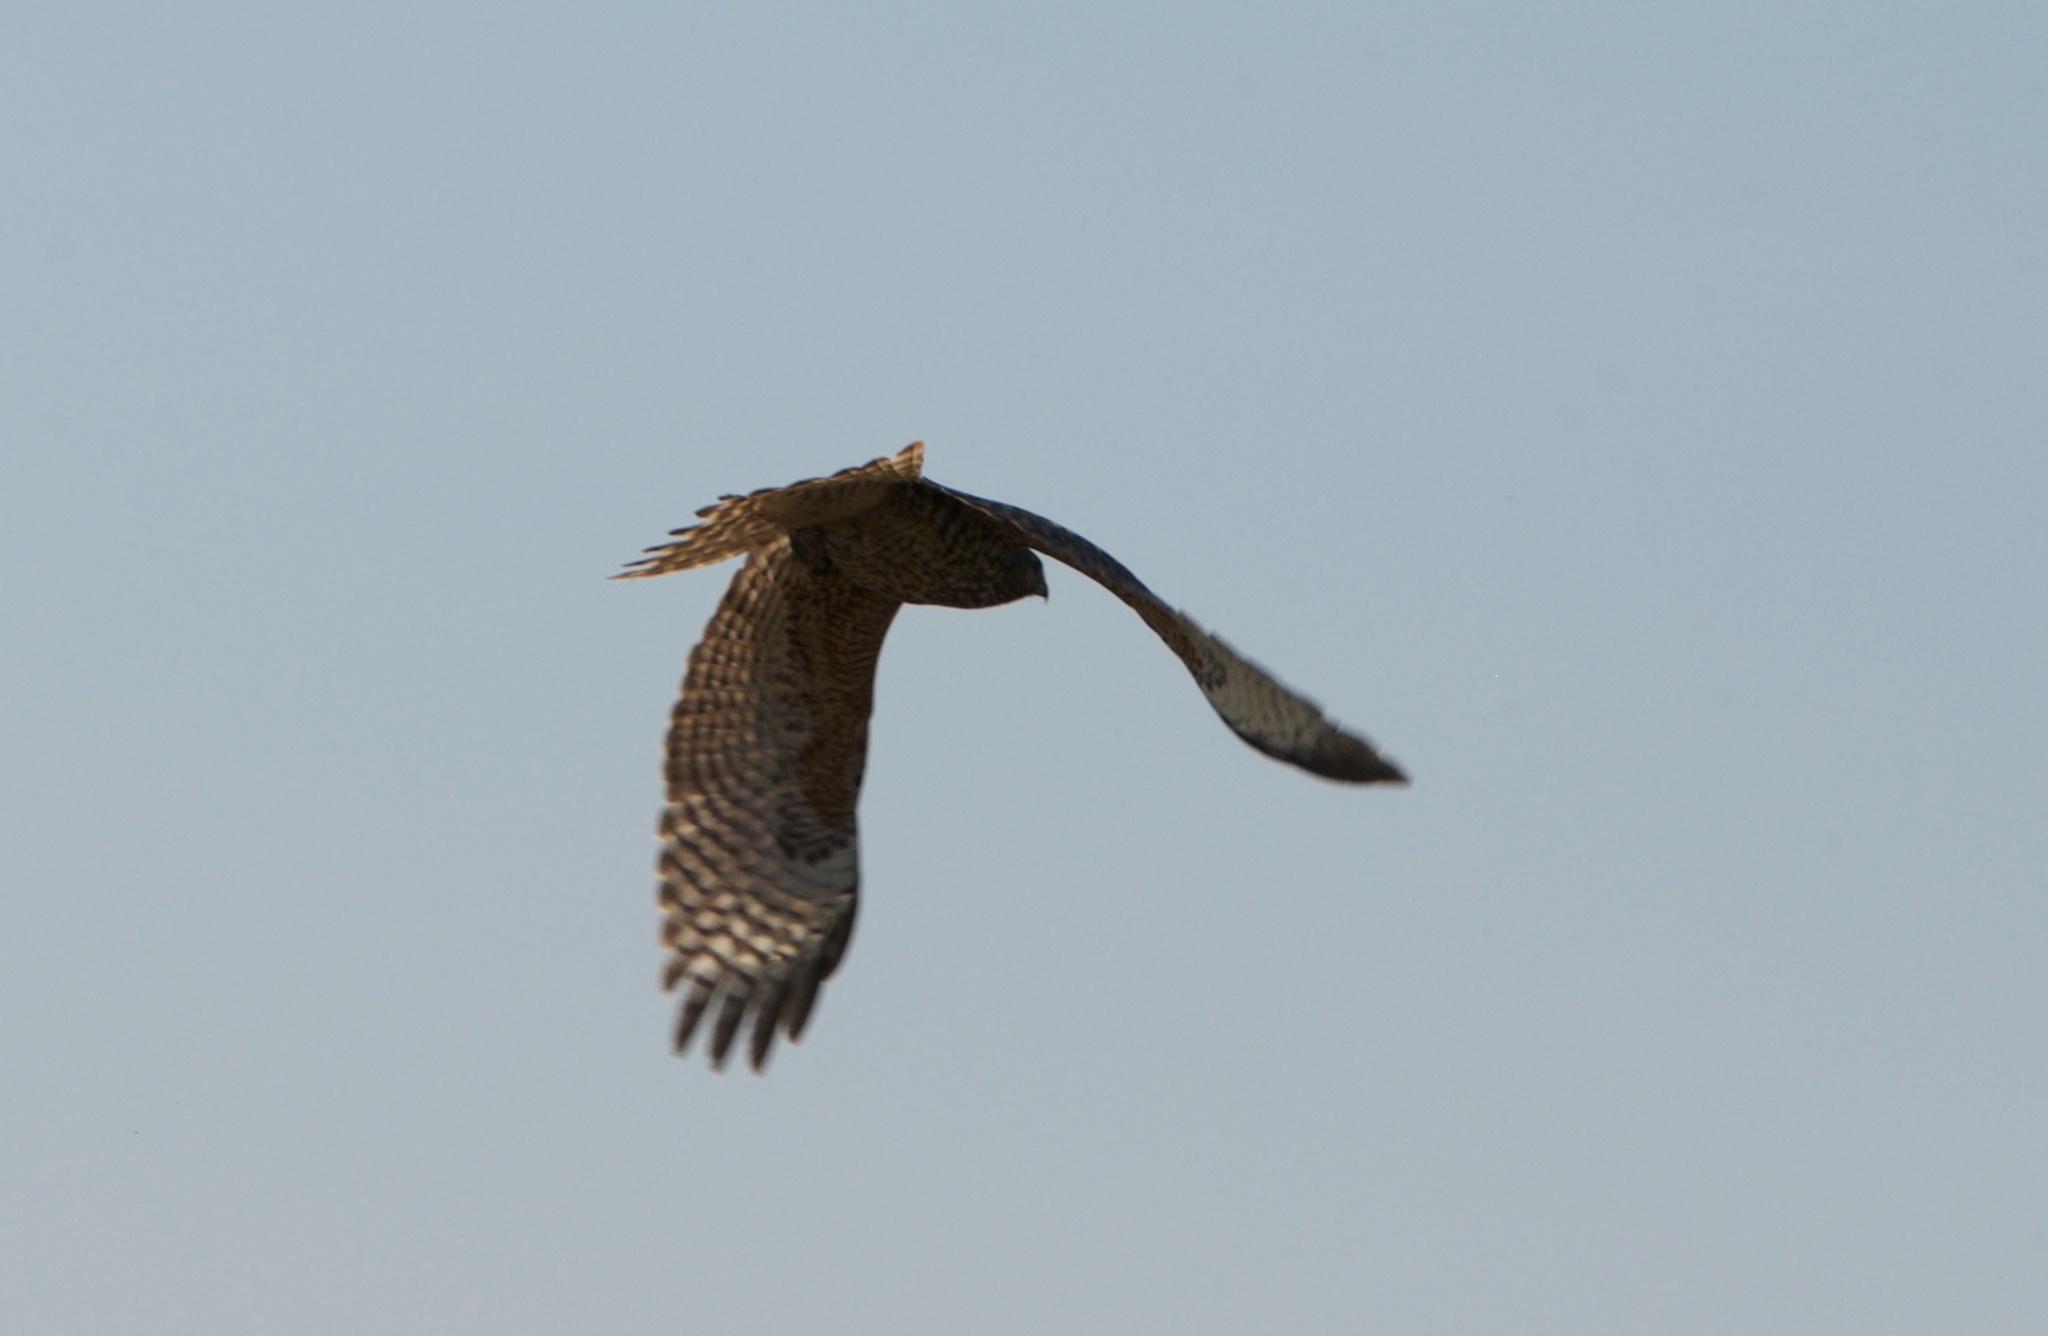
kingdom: Animalia
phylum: Chordata
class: Aves
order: Accipitriformes
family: Accipitridae
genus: Buteo
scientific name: Buteo lineatus
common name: Red-shouldered hawk
